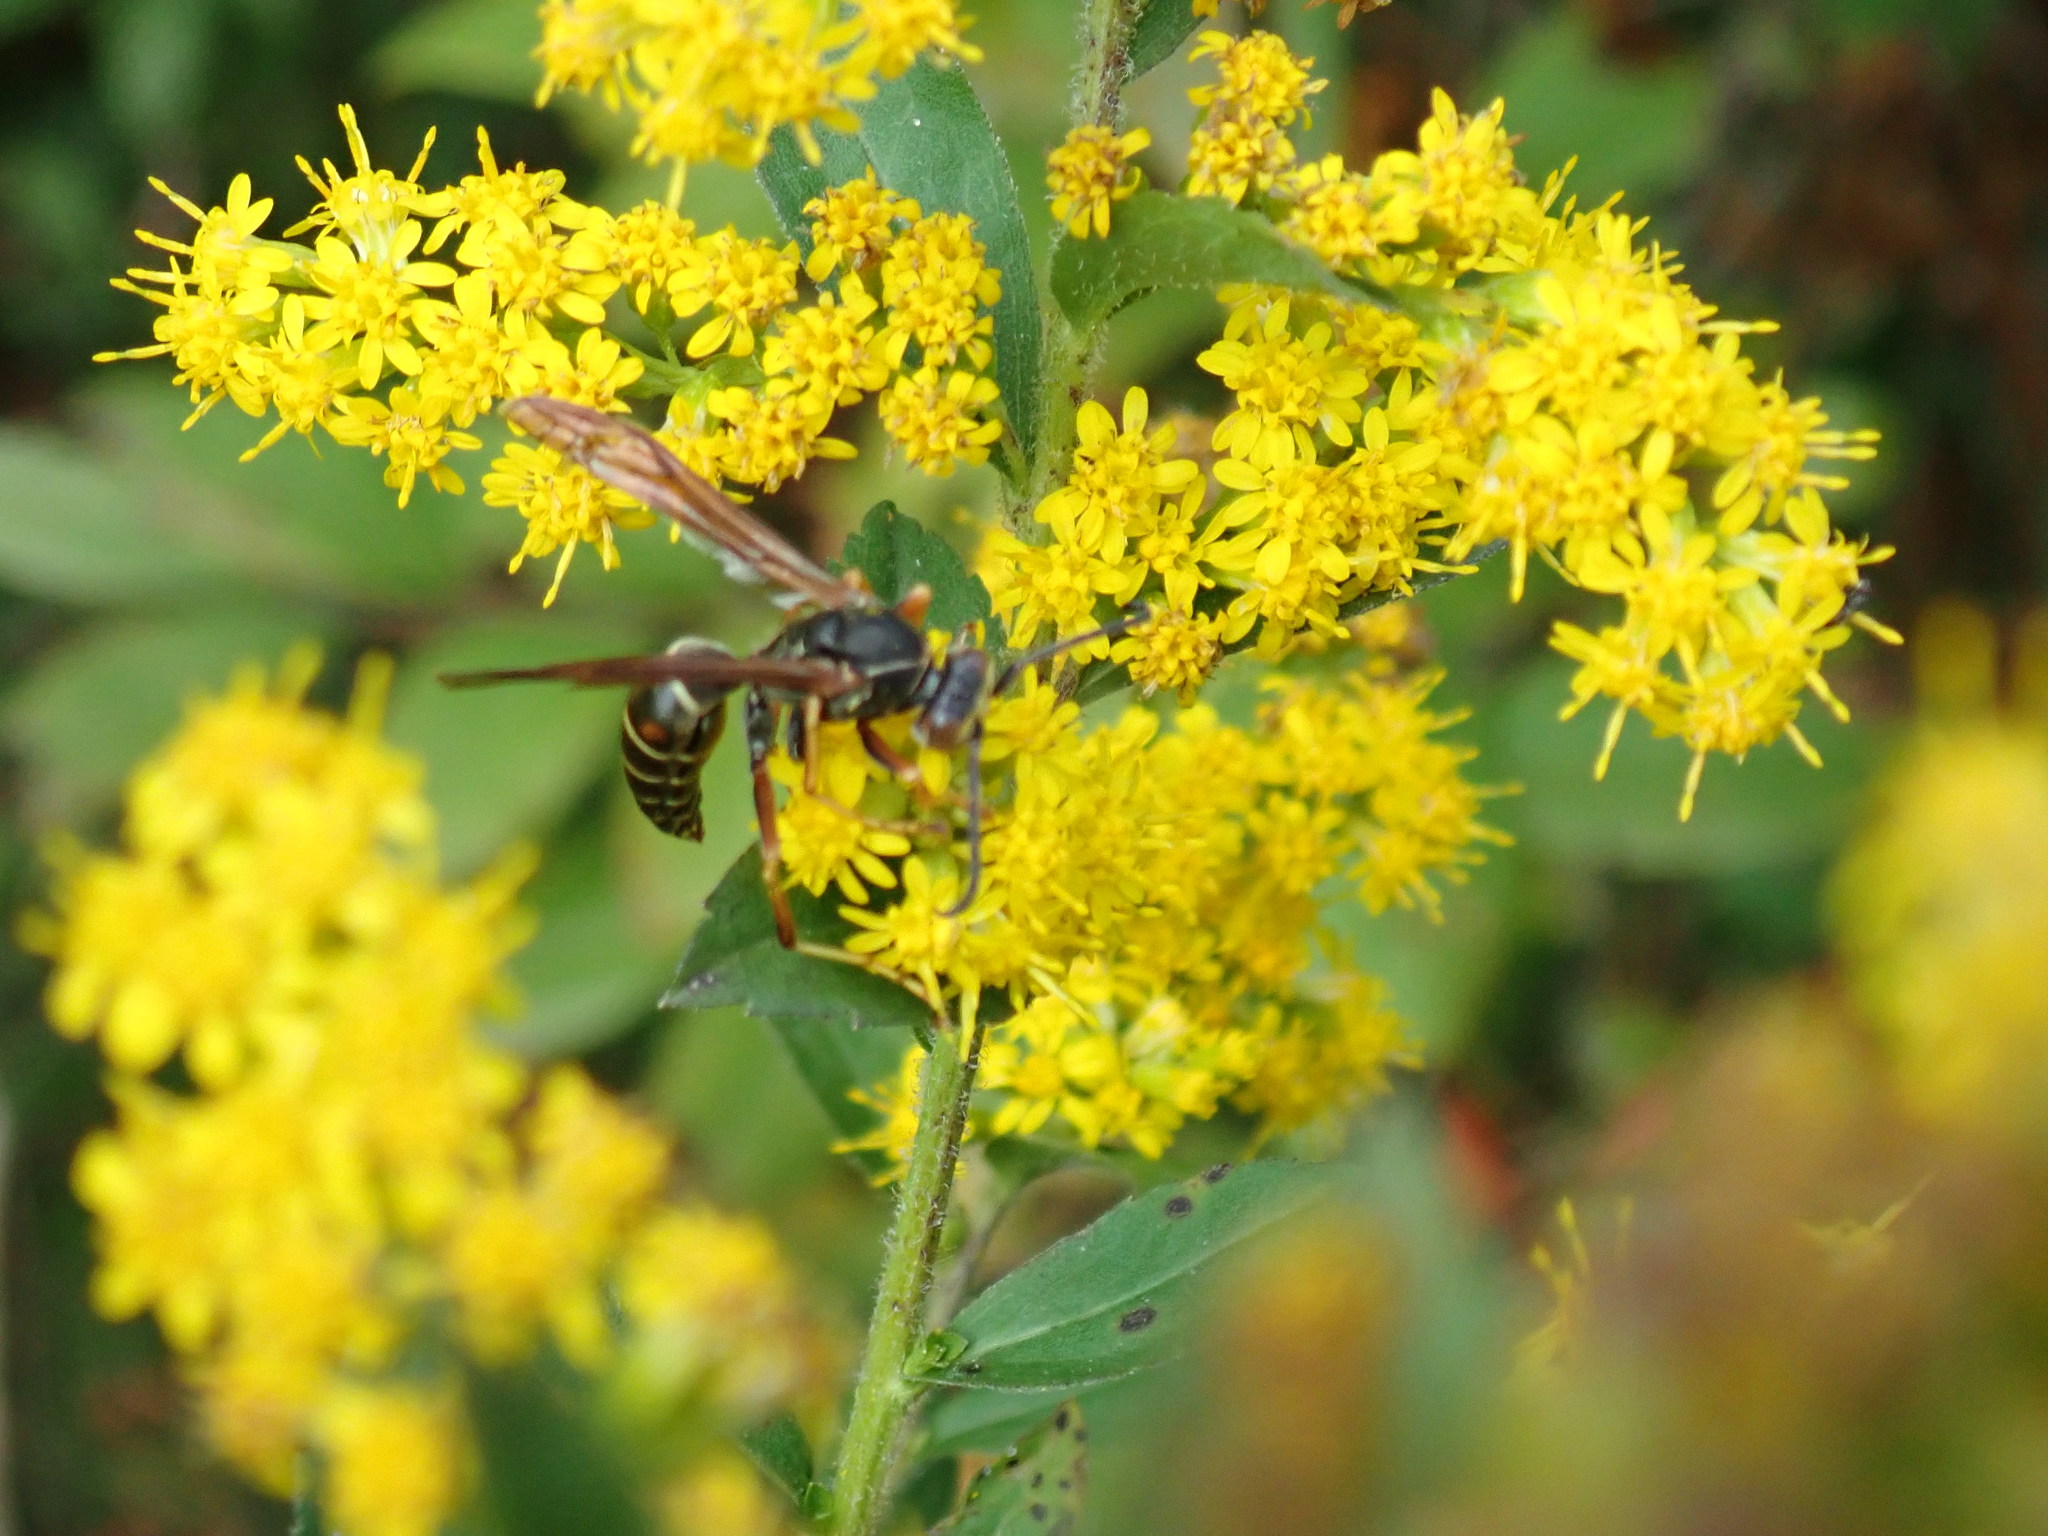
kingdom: Animalia
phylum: Arthropoda
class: Insecta
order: Hymenoptera
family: Eumenidae
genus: Polistes
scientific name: Polistes fuscatus
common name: Dark paper wasp
